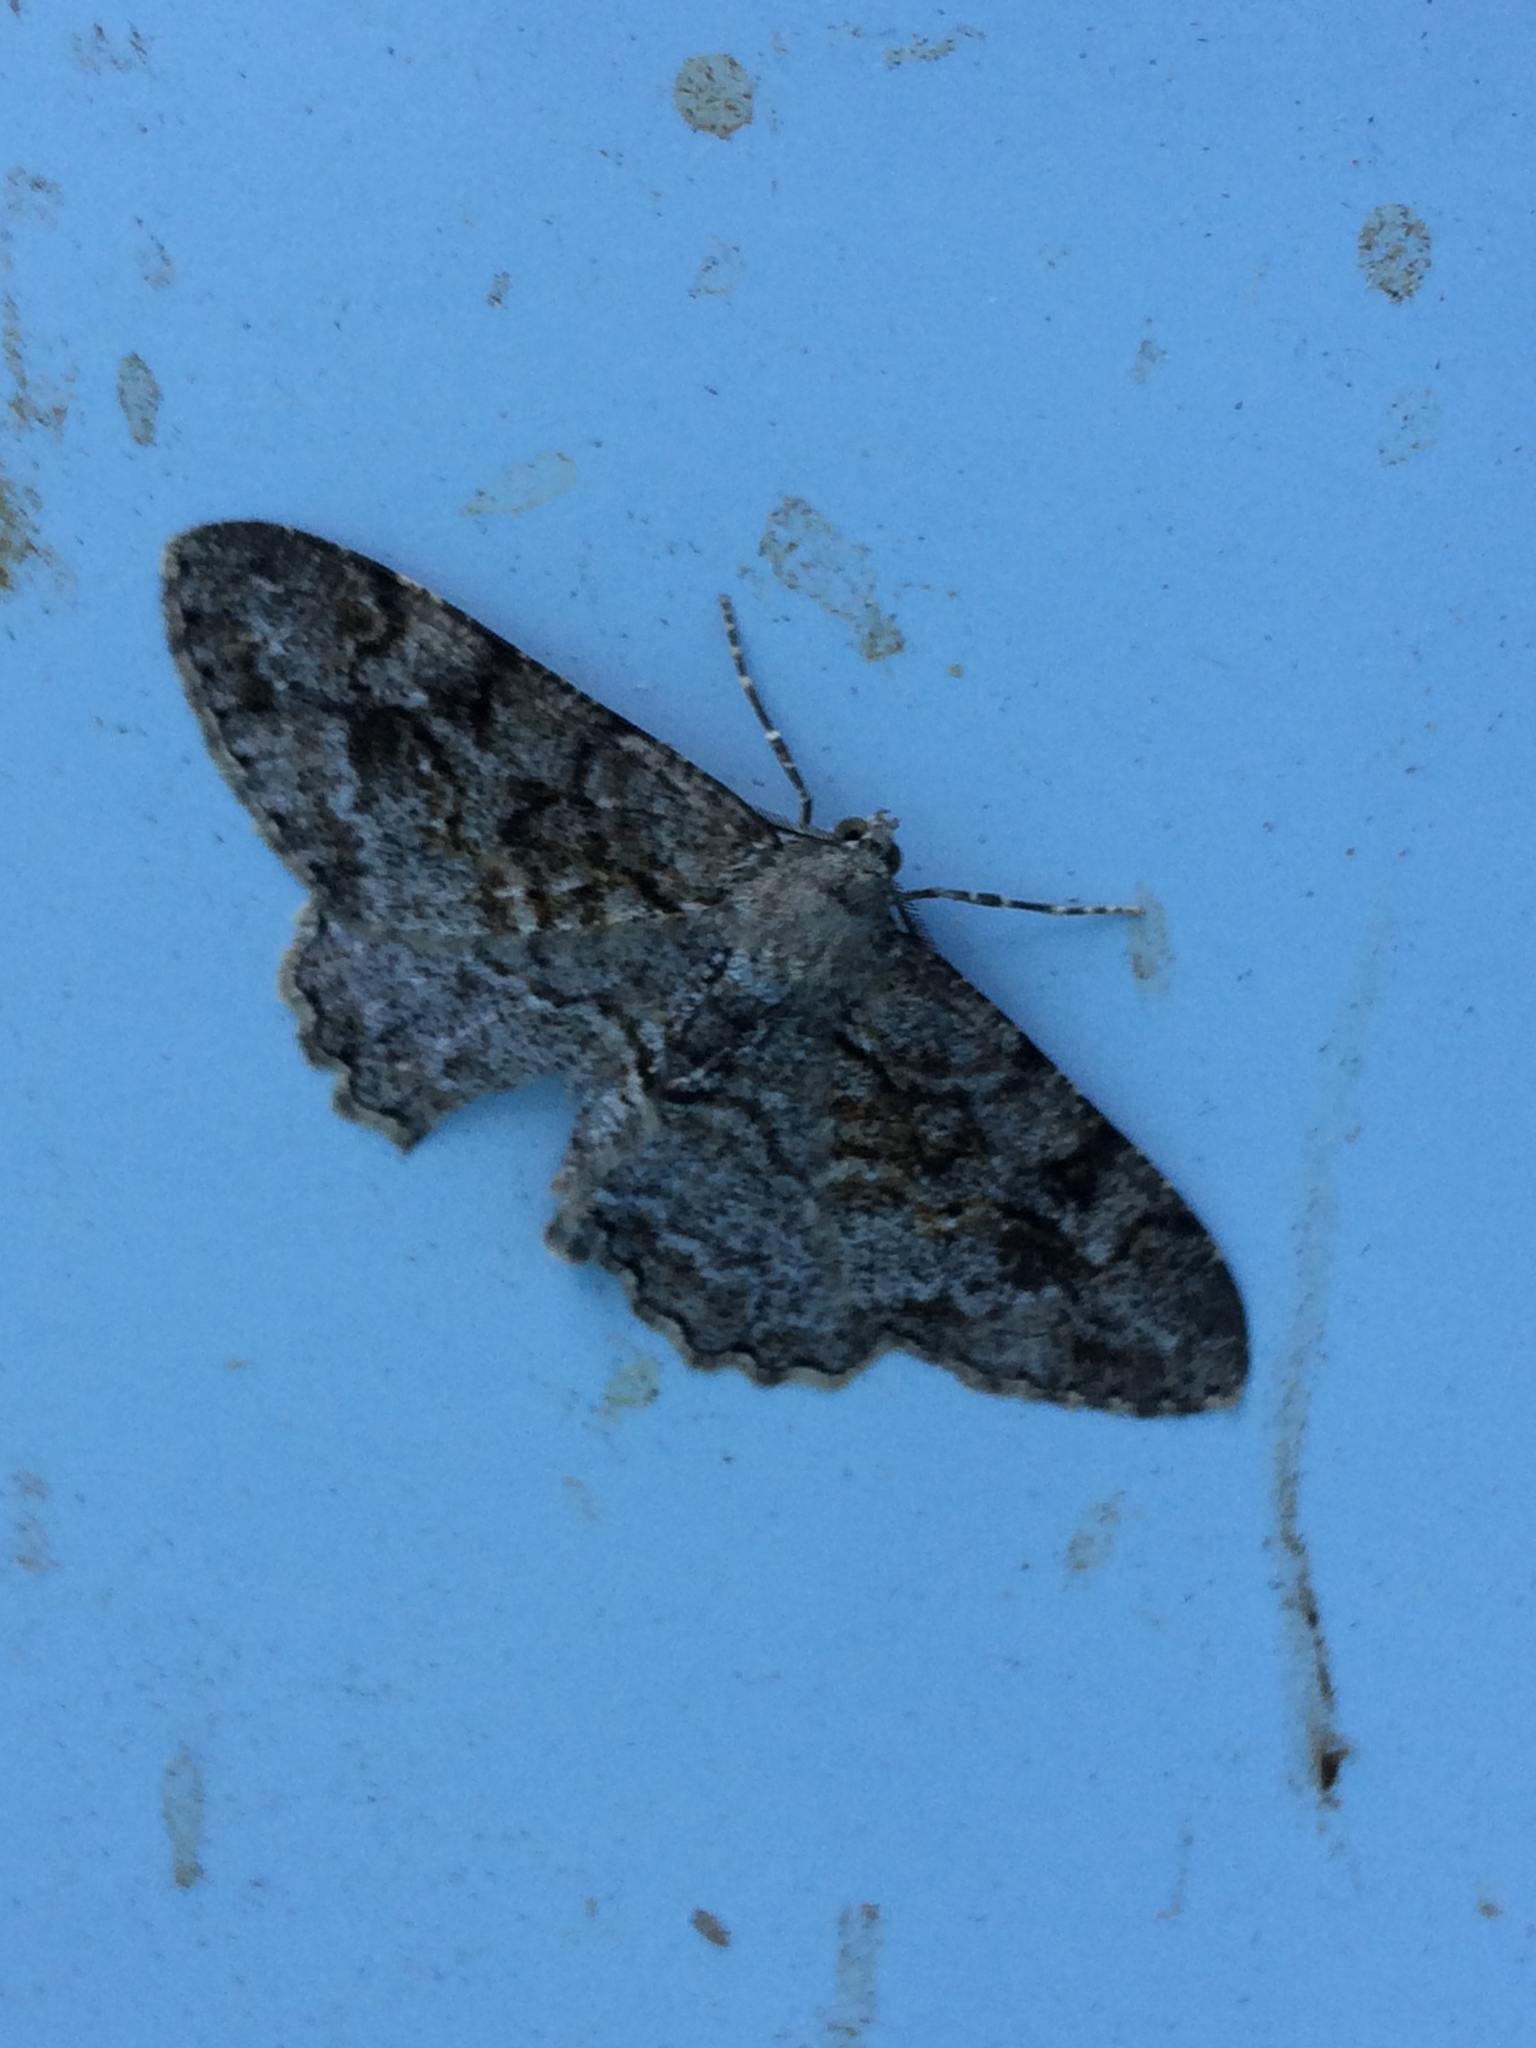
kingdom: Animalia
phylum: Arthropoda
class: Insecta
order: Lepidoptera
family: Geometridae
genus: Alcis
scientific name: Alcis repandata
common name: Mottled beauty
